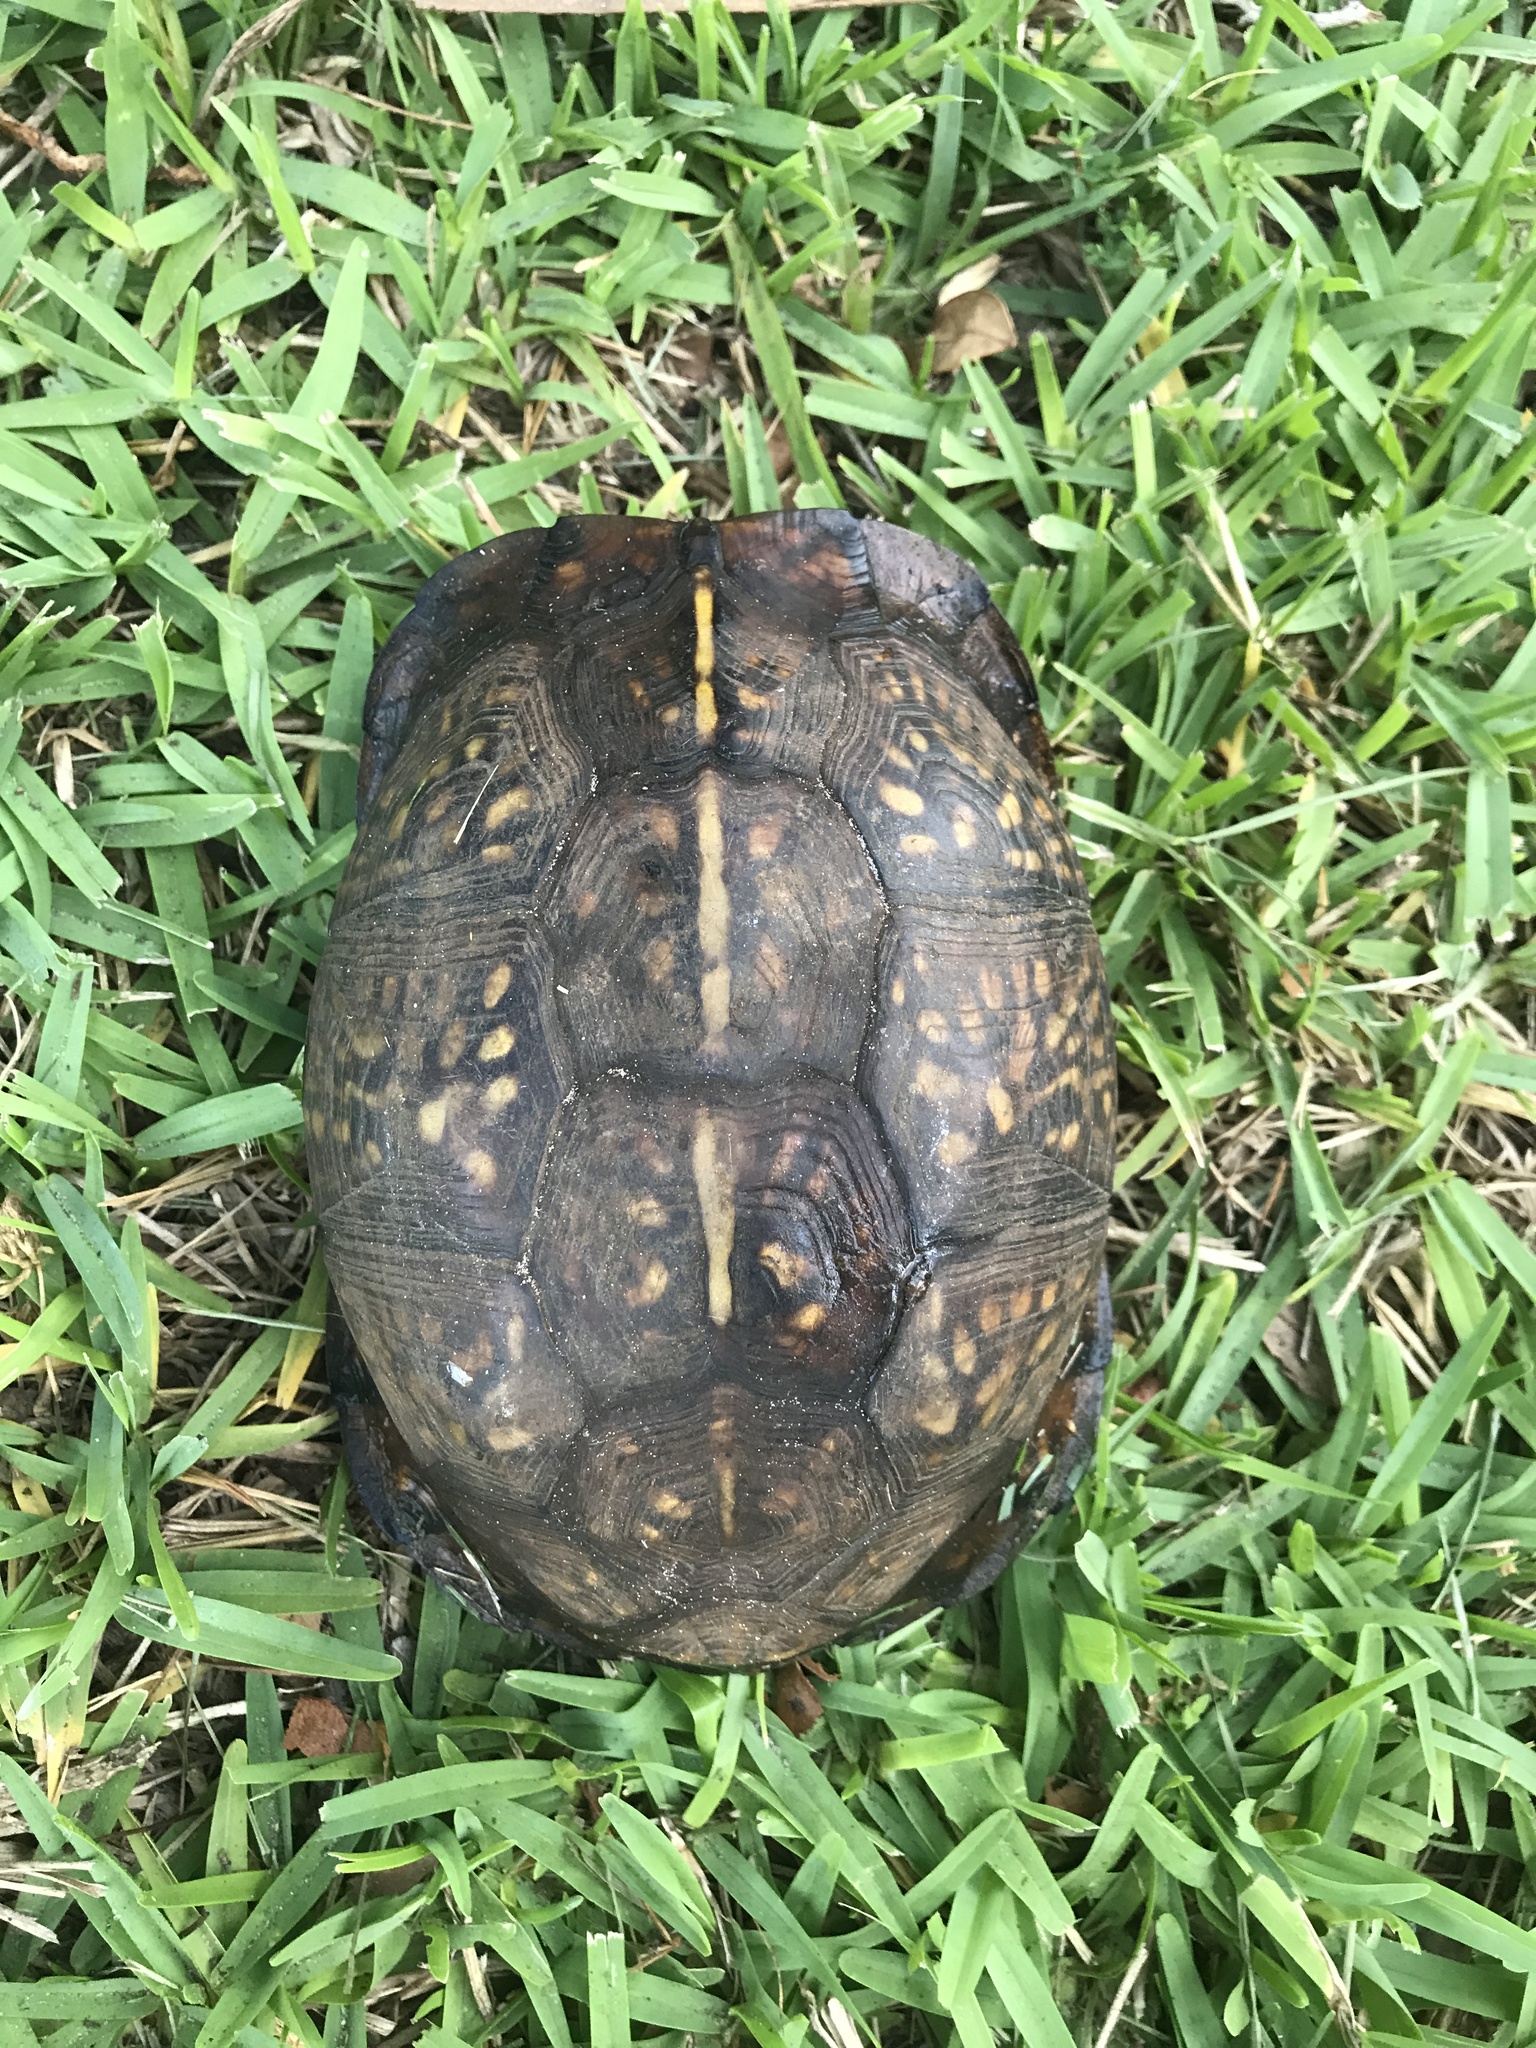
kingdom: Animalia
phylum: Chordata
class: Testudines
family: Emydidae
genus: Terrapene
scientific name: Terrapene carolina
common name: Common box turtle
